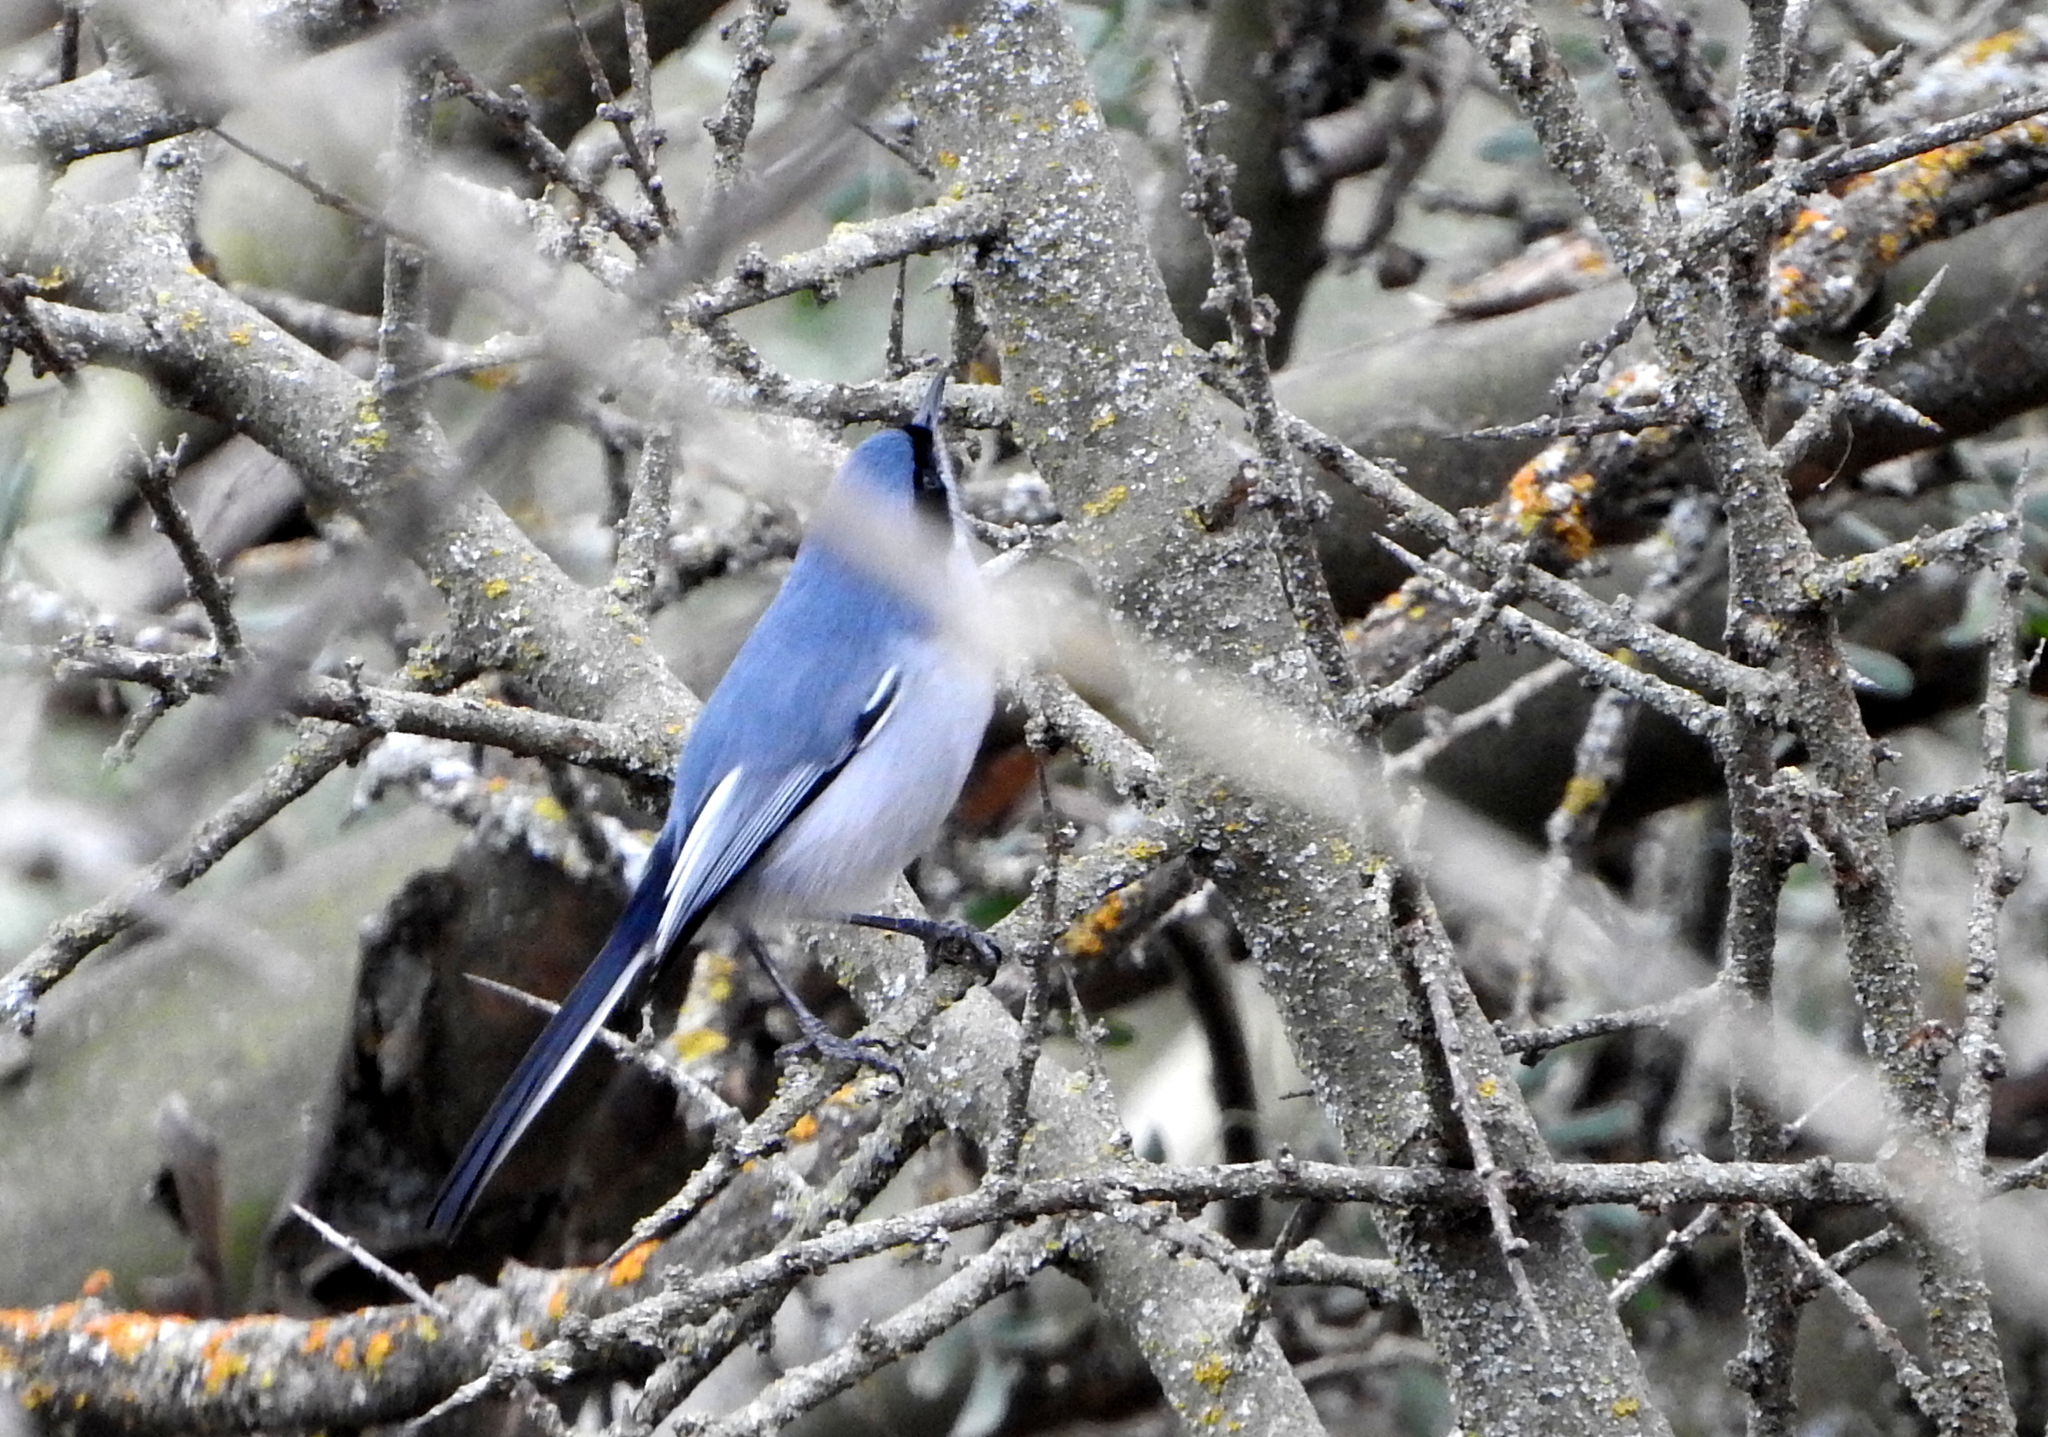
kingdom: Animalia
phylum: Chordata
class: Aves
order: Passeriformes
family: Polioptilidae
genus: Polioptila
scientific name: Polioptila dumicola
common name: Masked gnatcatcher
